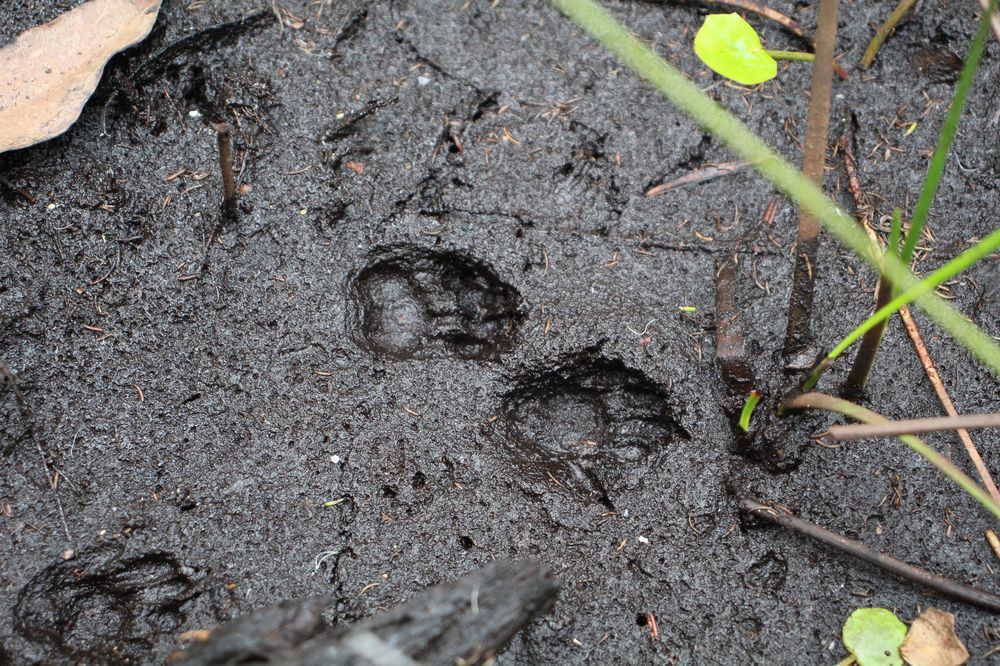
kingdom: Animalia
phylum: Chordata
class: Mammalia
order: Dasyuromorphia
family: Dasyuridae
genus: Dasyurus
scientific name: Dasyurus geoffroii
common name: Western quoll
